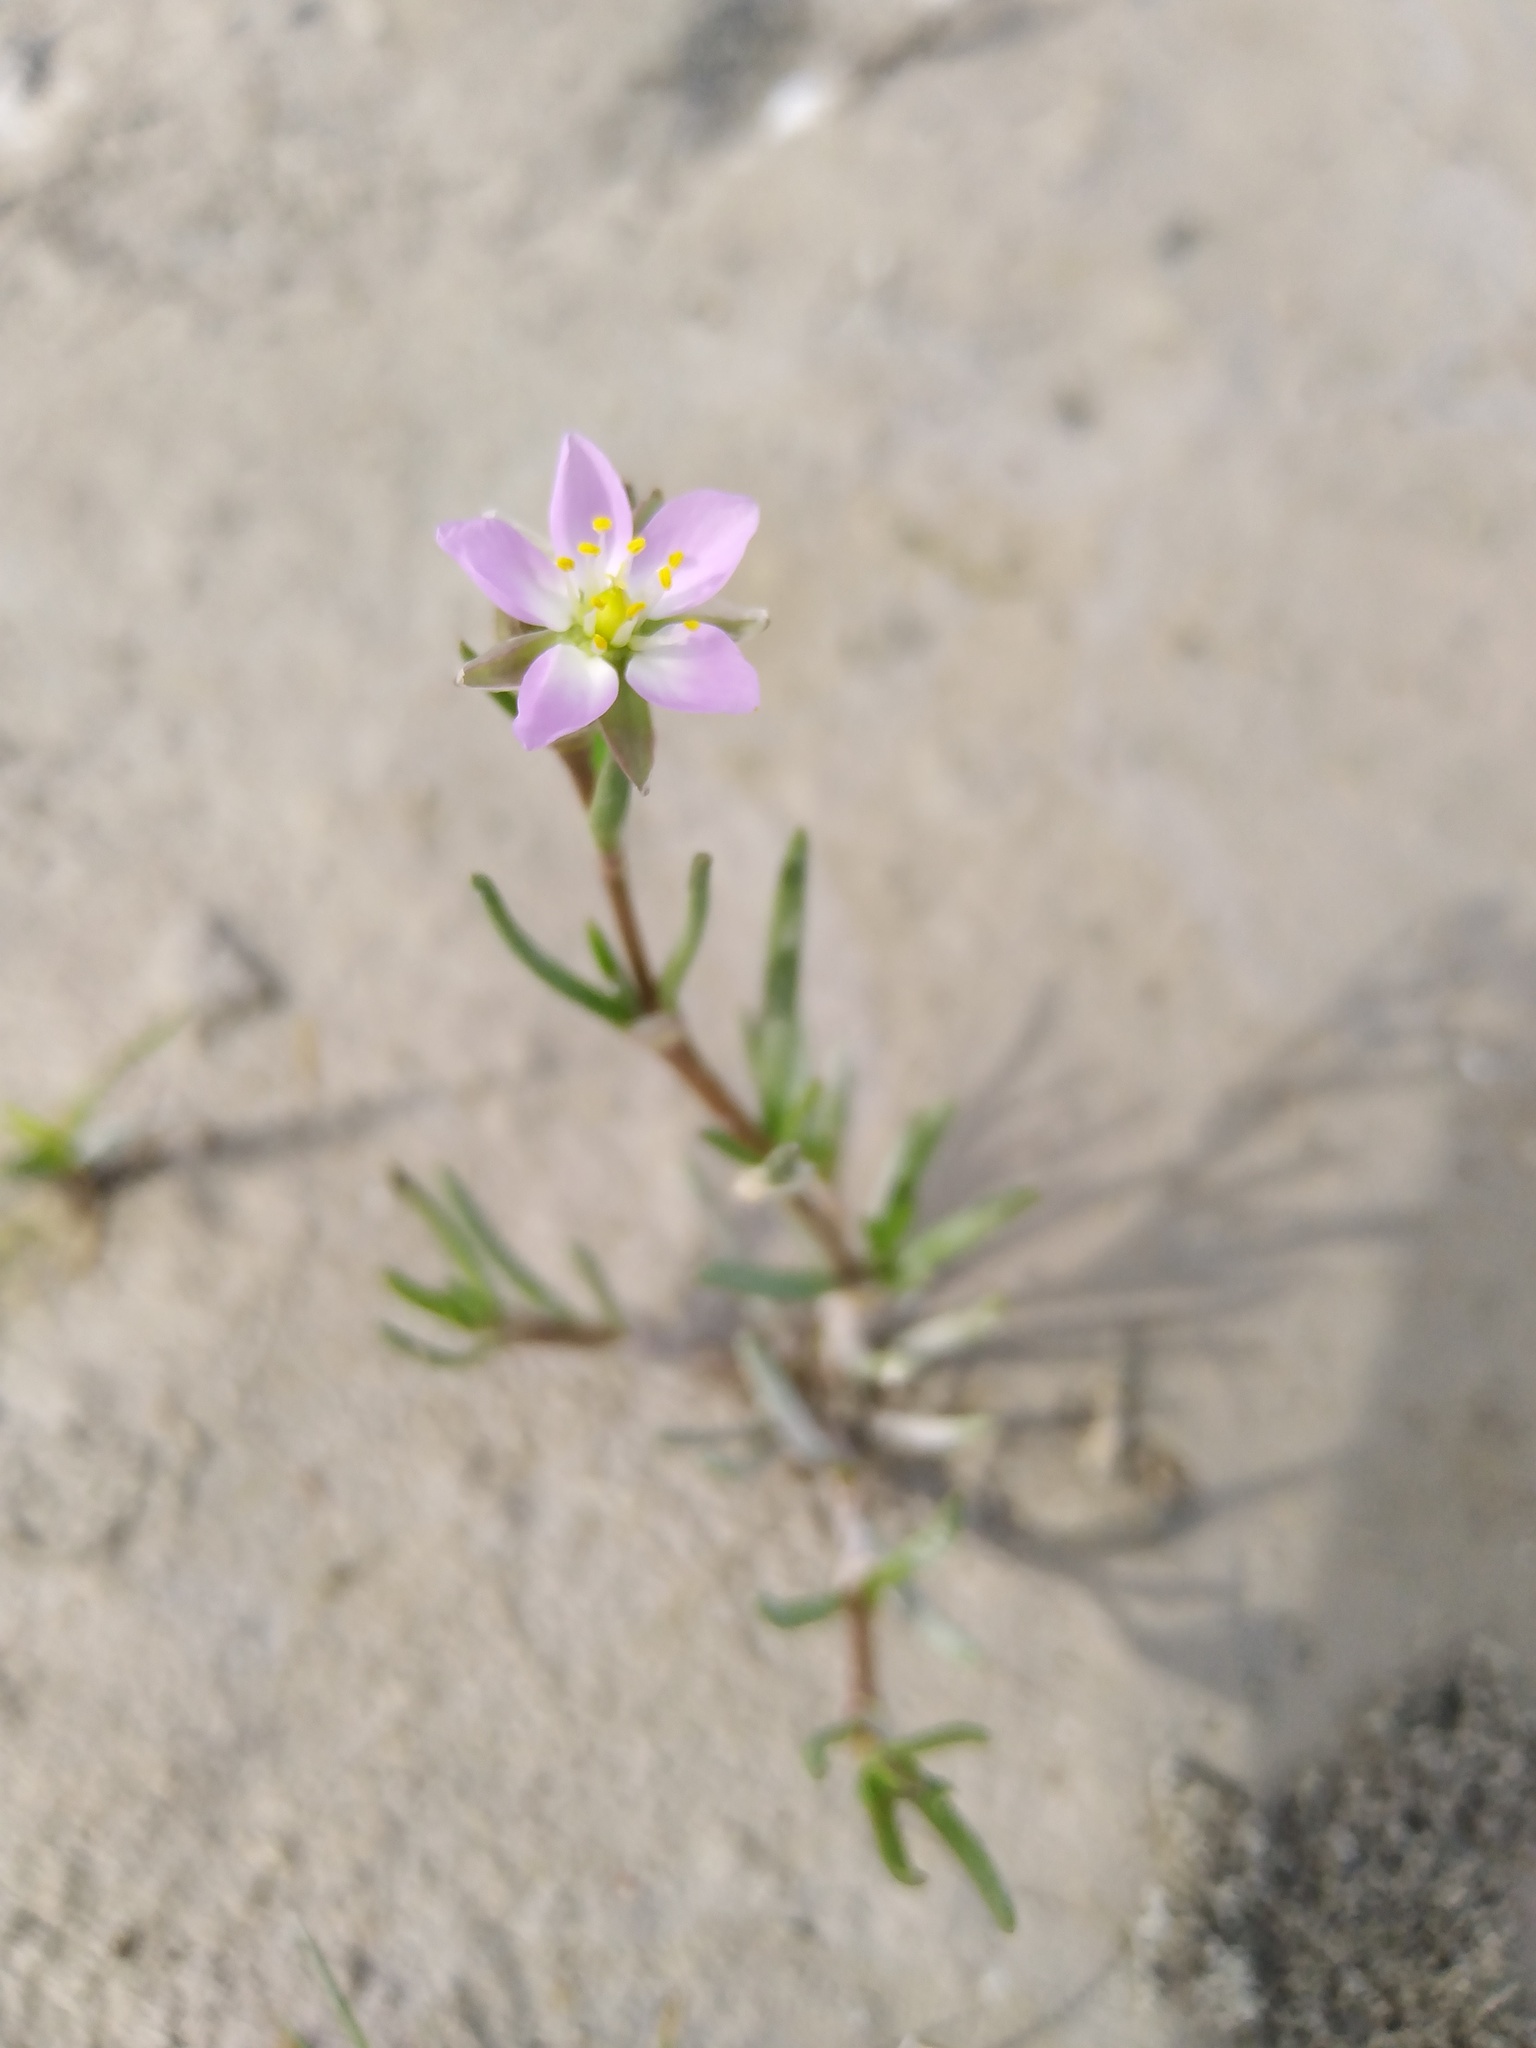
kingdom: Plantae
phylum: Tracheophyta
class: Magnoliopsida
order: Caryophyllales
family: Caryophyllaceae
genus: Spergularia
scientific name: Spergularia media
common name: Greater sea-spurrey
